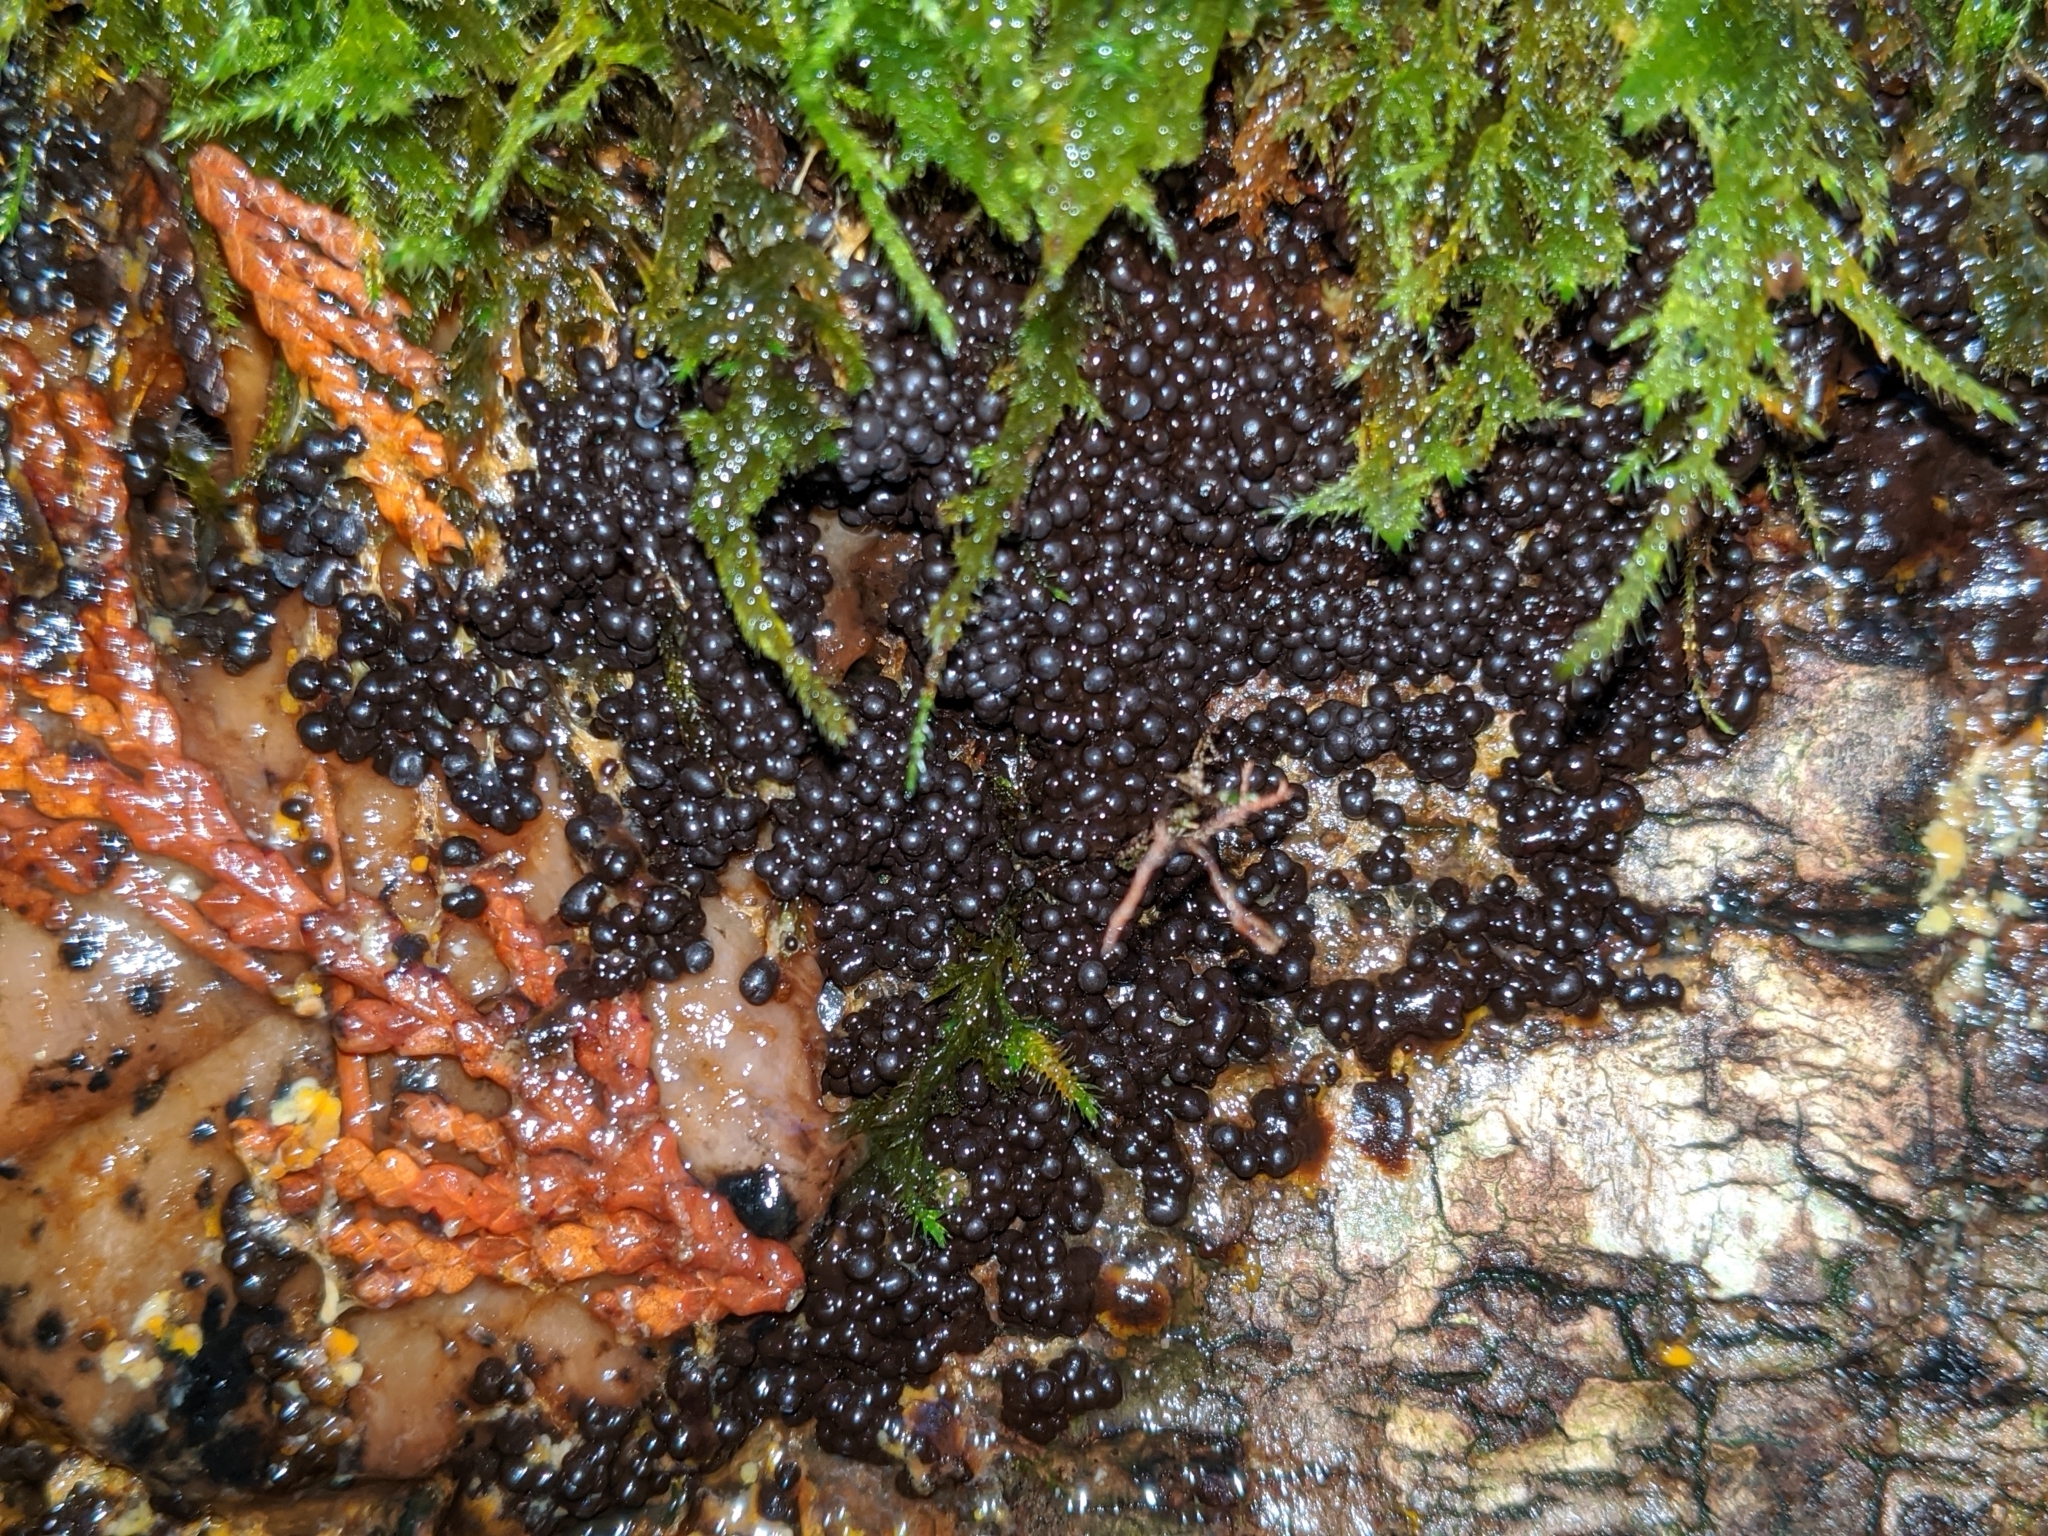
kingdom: Protozoa
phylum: Mycetozoa
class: Myxomycetes
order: Physarales
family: Physaraceae
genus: Badhamia
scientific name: Badhamia utricularis
